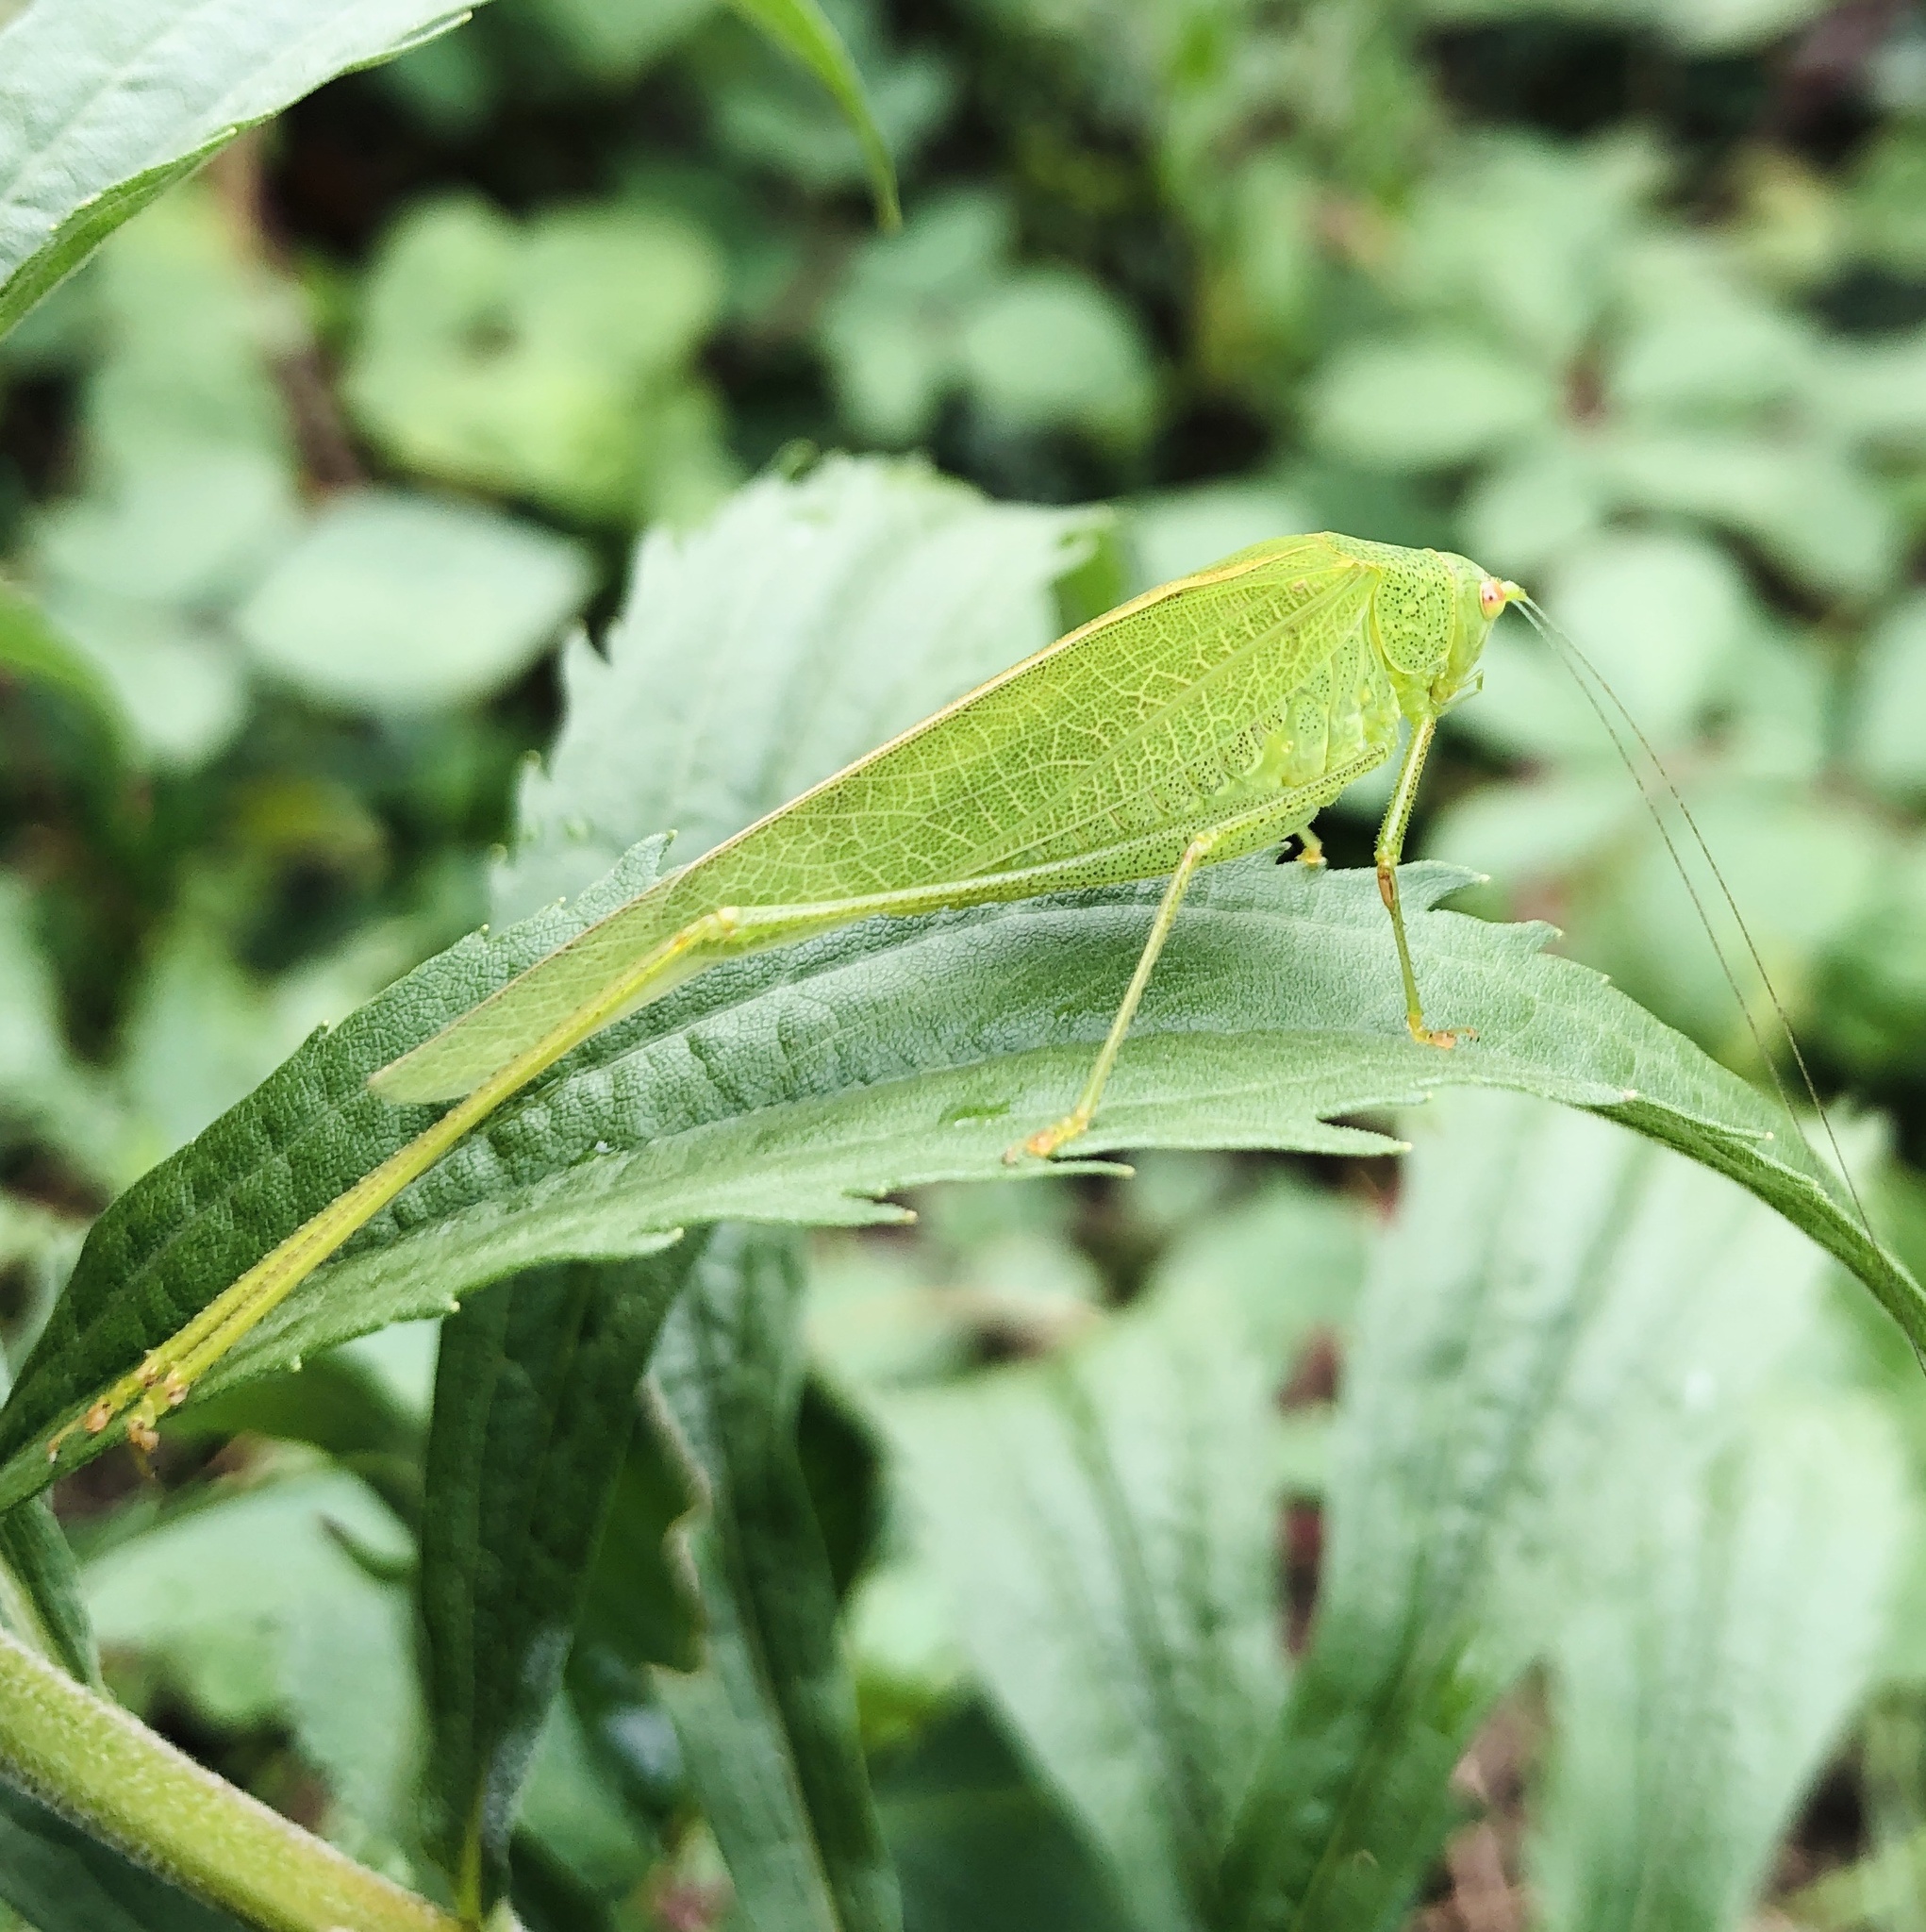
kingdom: Animalia
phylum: Arthropoda
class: Insecta
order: Orthoptera
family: Tettigoniidae
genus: Phaneroptera
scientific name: Phaneroptera nana
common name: Southern sickle bush-cricket
